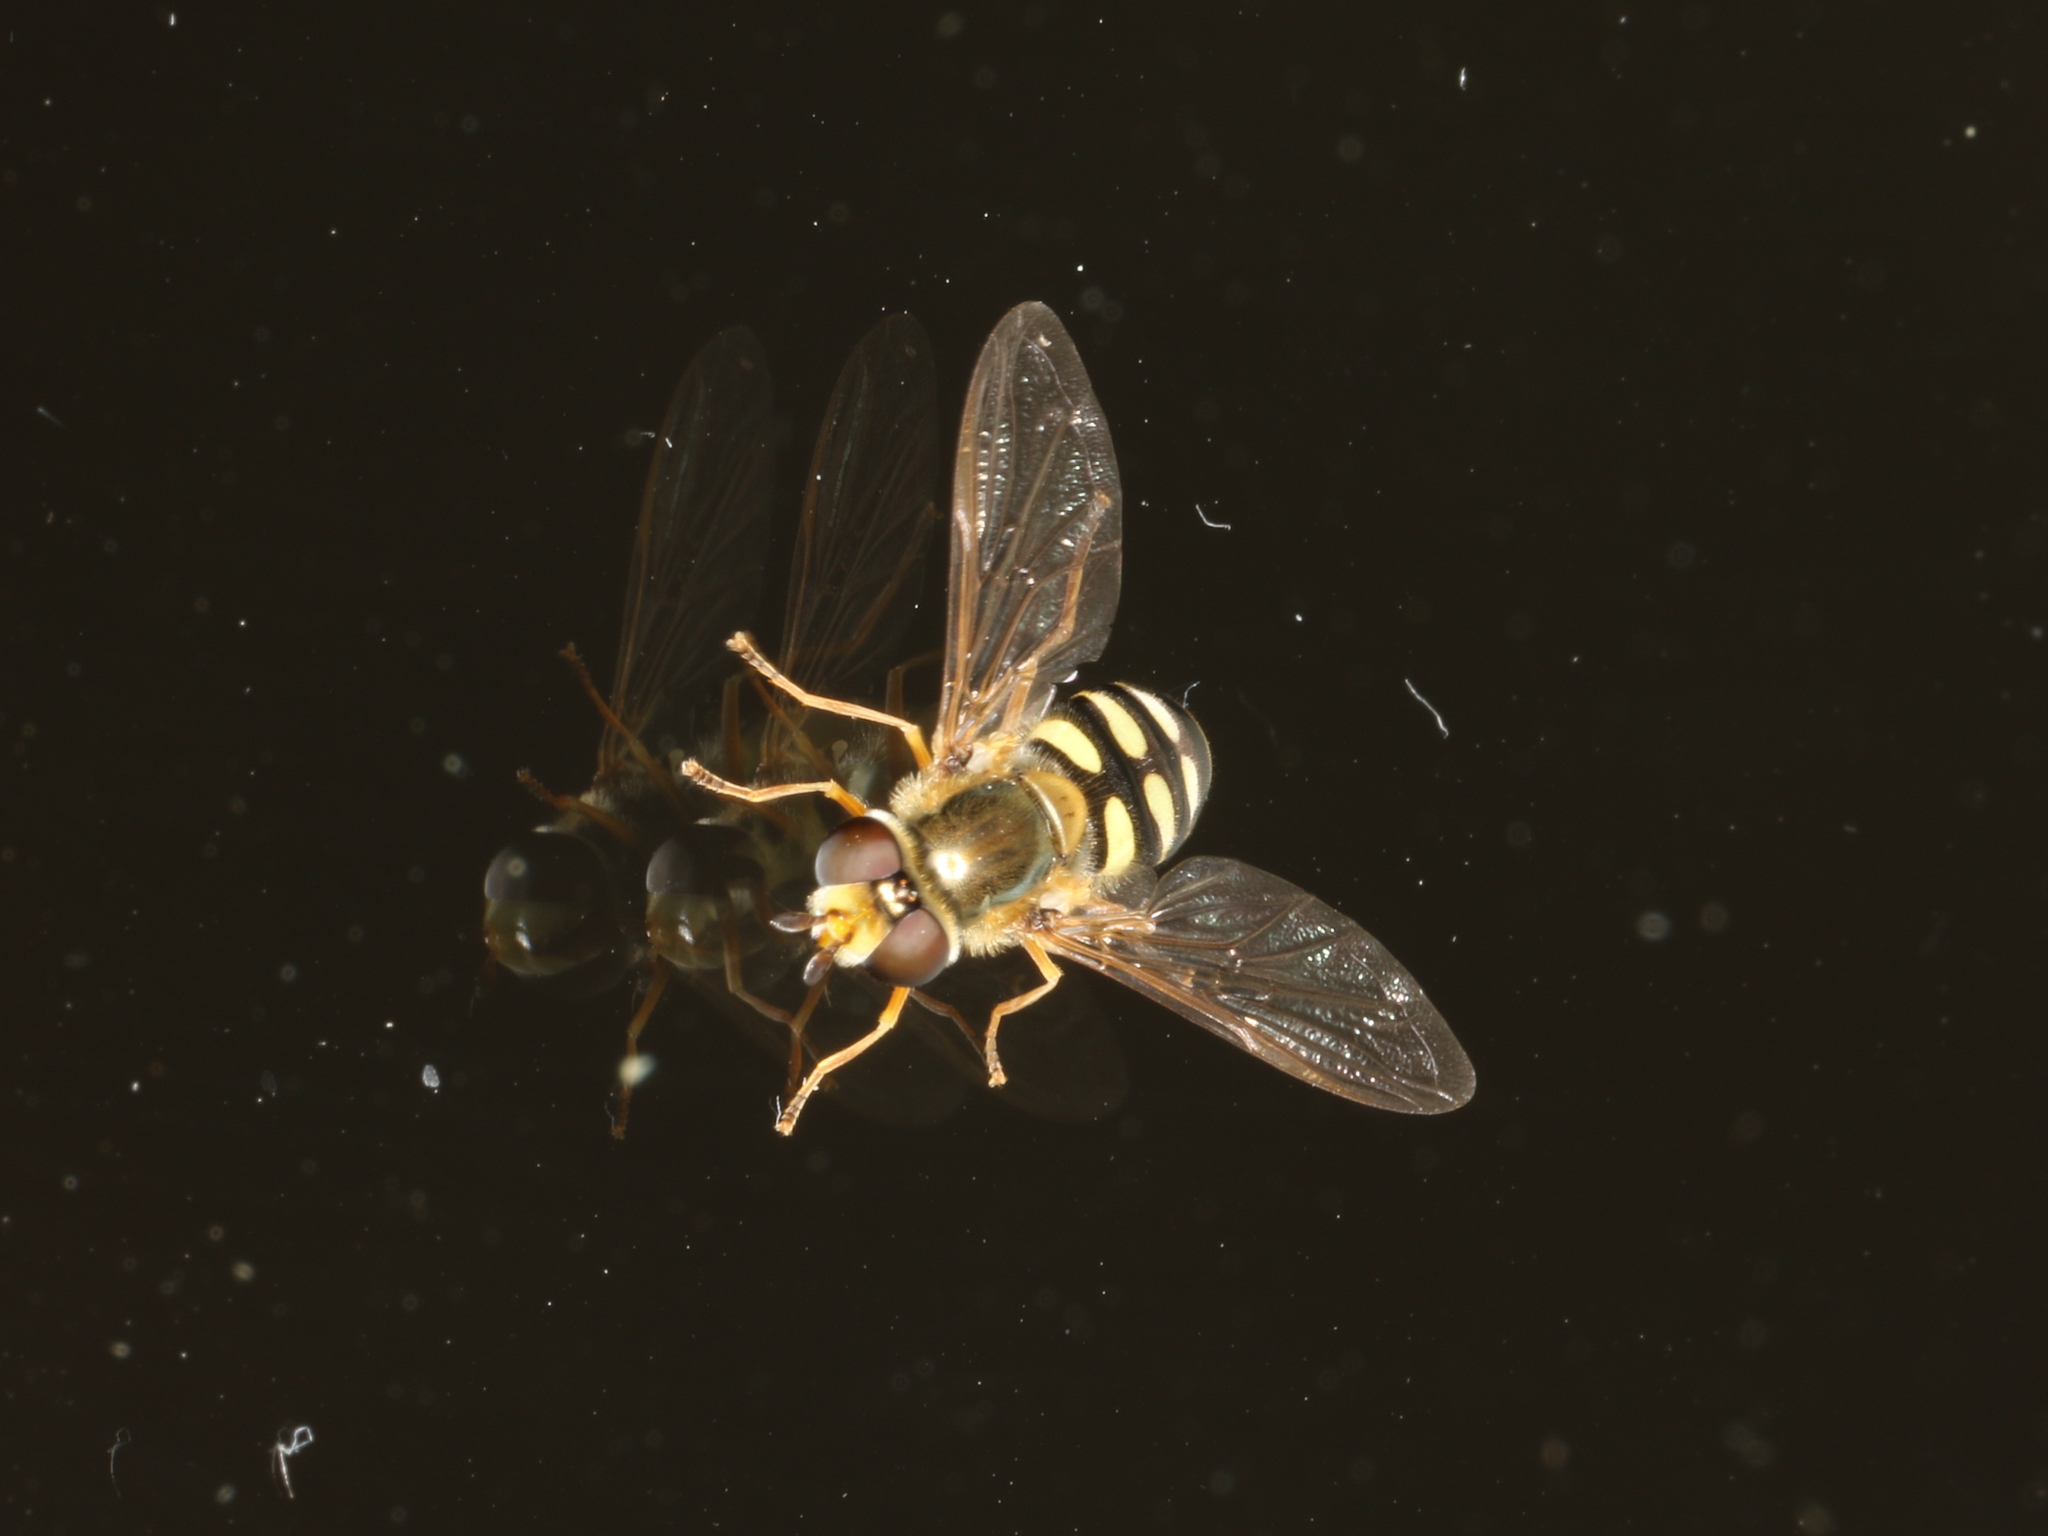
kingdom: Animalia
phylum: Arthropoda
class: Insecta
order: Diptera
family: Syrphidae
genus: Eupeodes
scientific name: Eupeodes corollae
